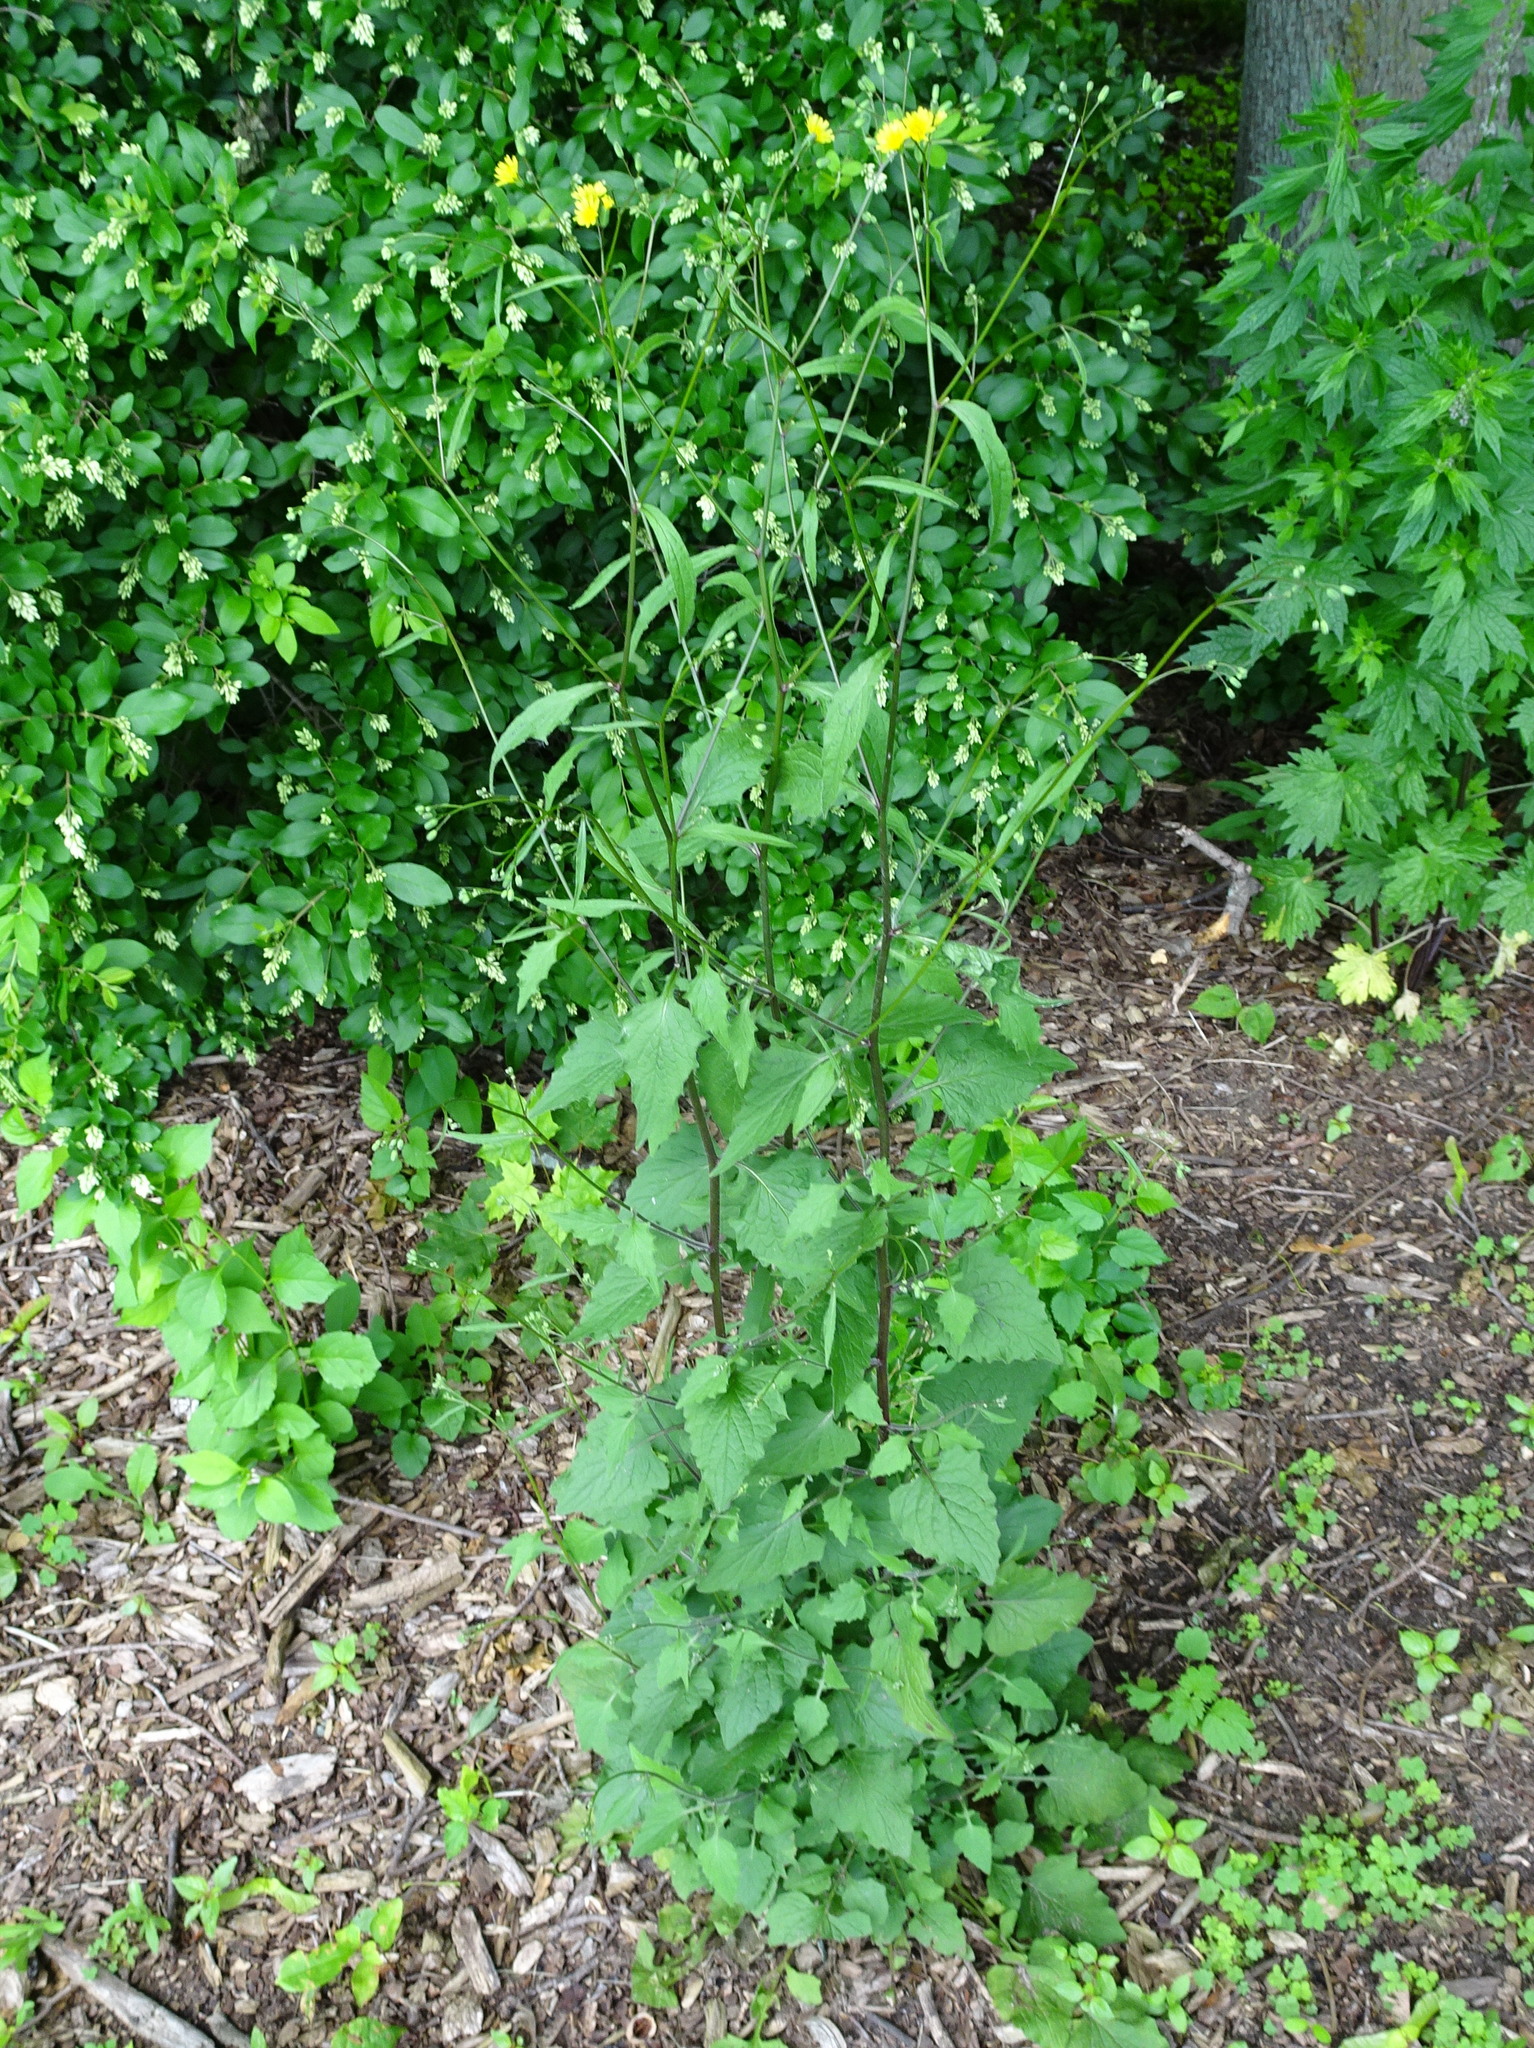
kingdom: Plantae
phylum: Tracheophyta
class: Magnoliopsida
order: Asterales
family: Asteraceae
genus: Lapsana
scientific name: Lapsana communis
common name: Nipplewort
